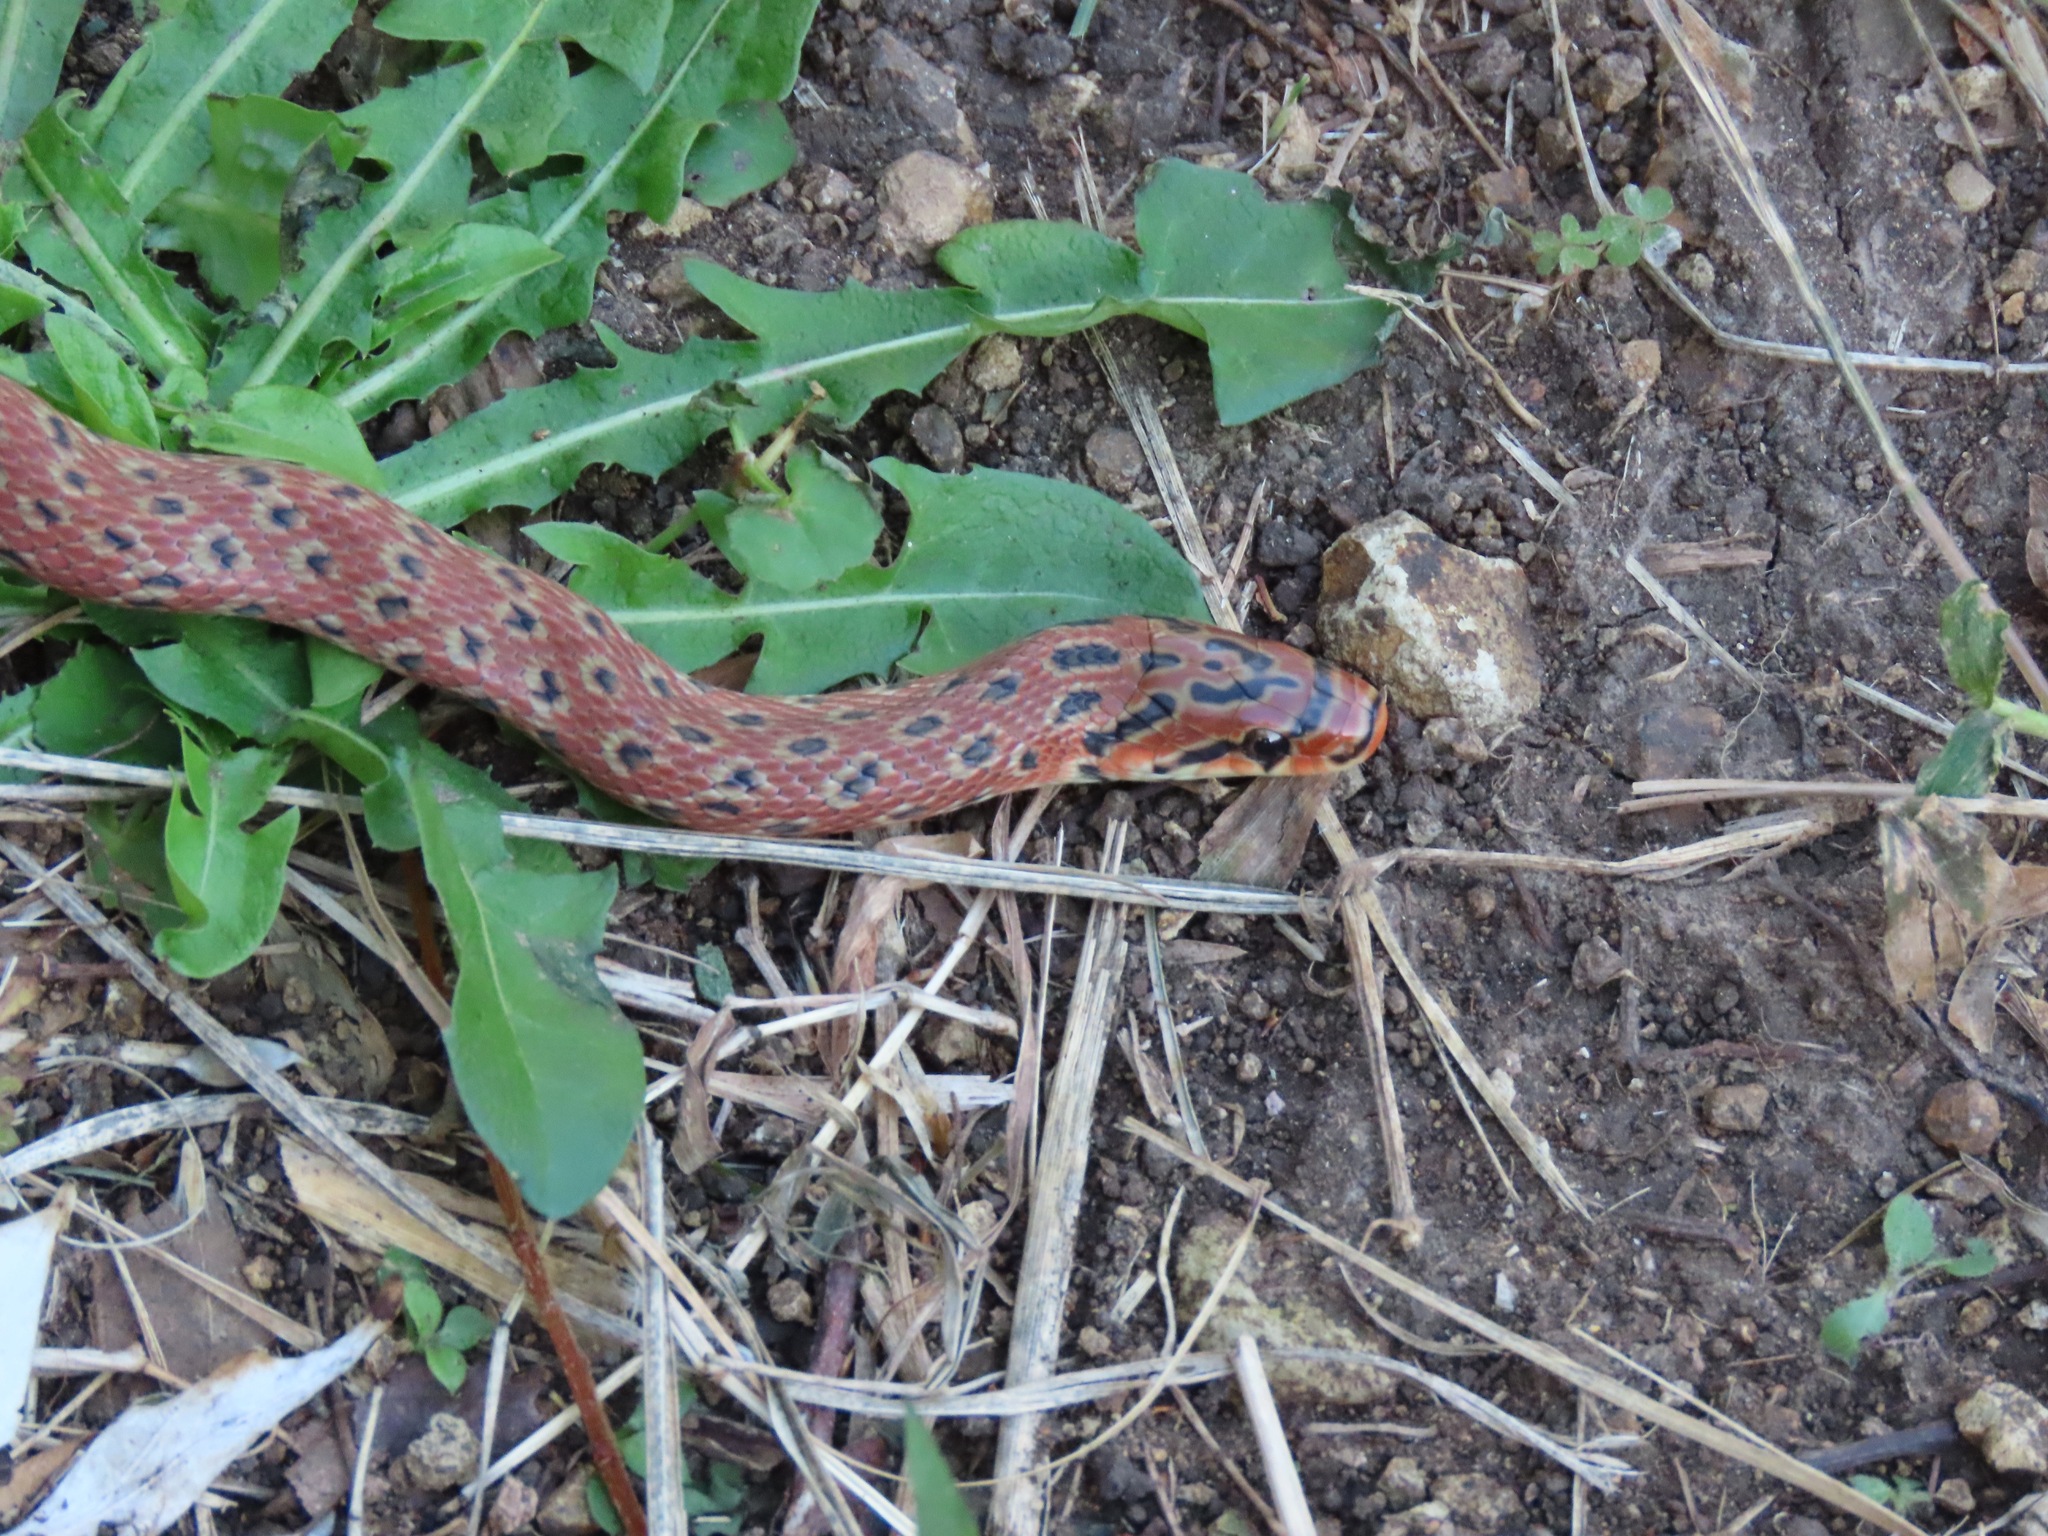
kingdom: Animalia
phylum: Chordata
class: Squamata
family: Colubridae
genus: Euprepiophis
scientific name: Euprepiophis conspicillata
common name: Burrowing ratsnake
